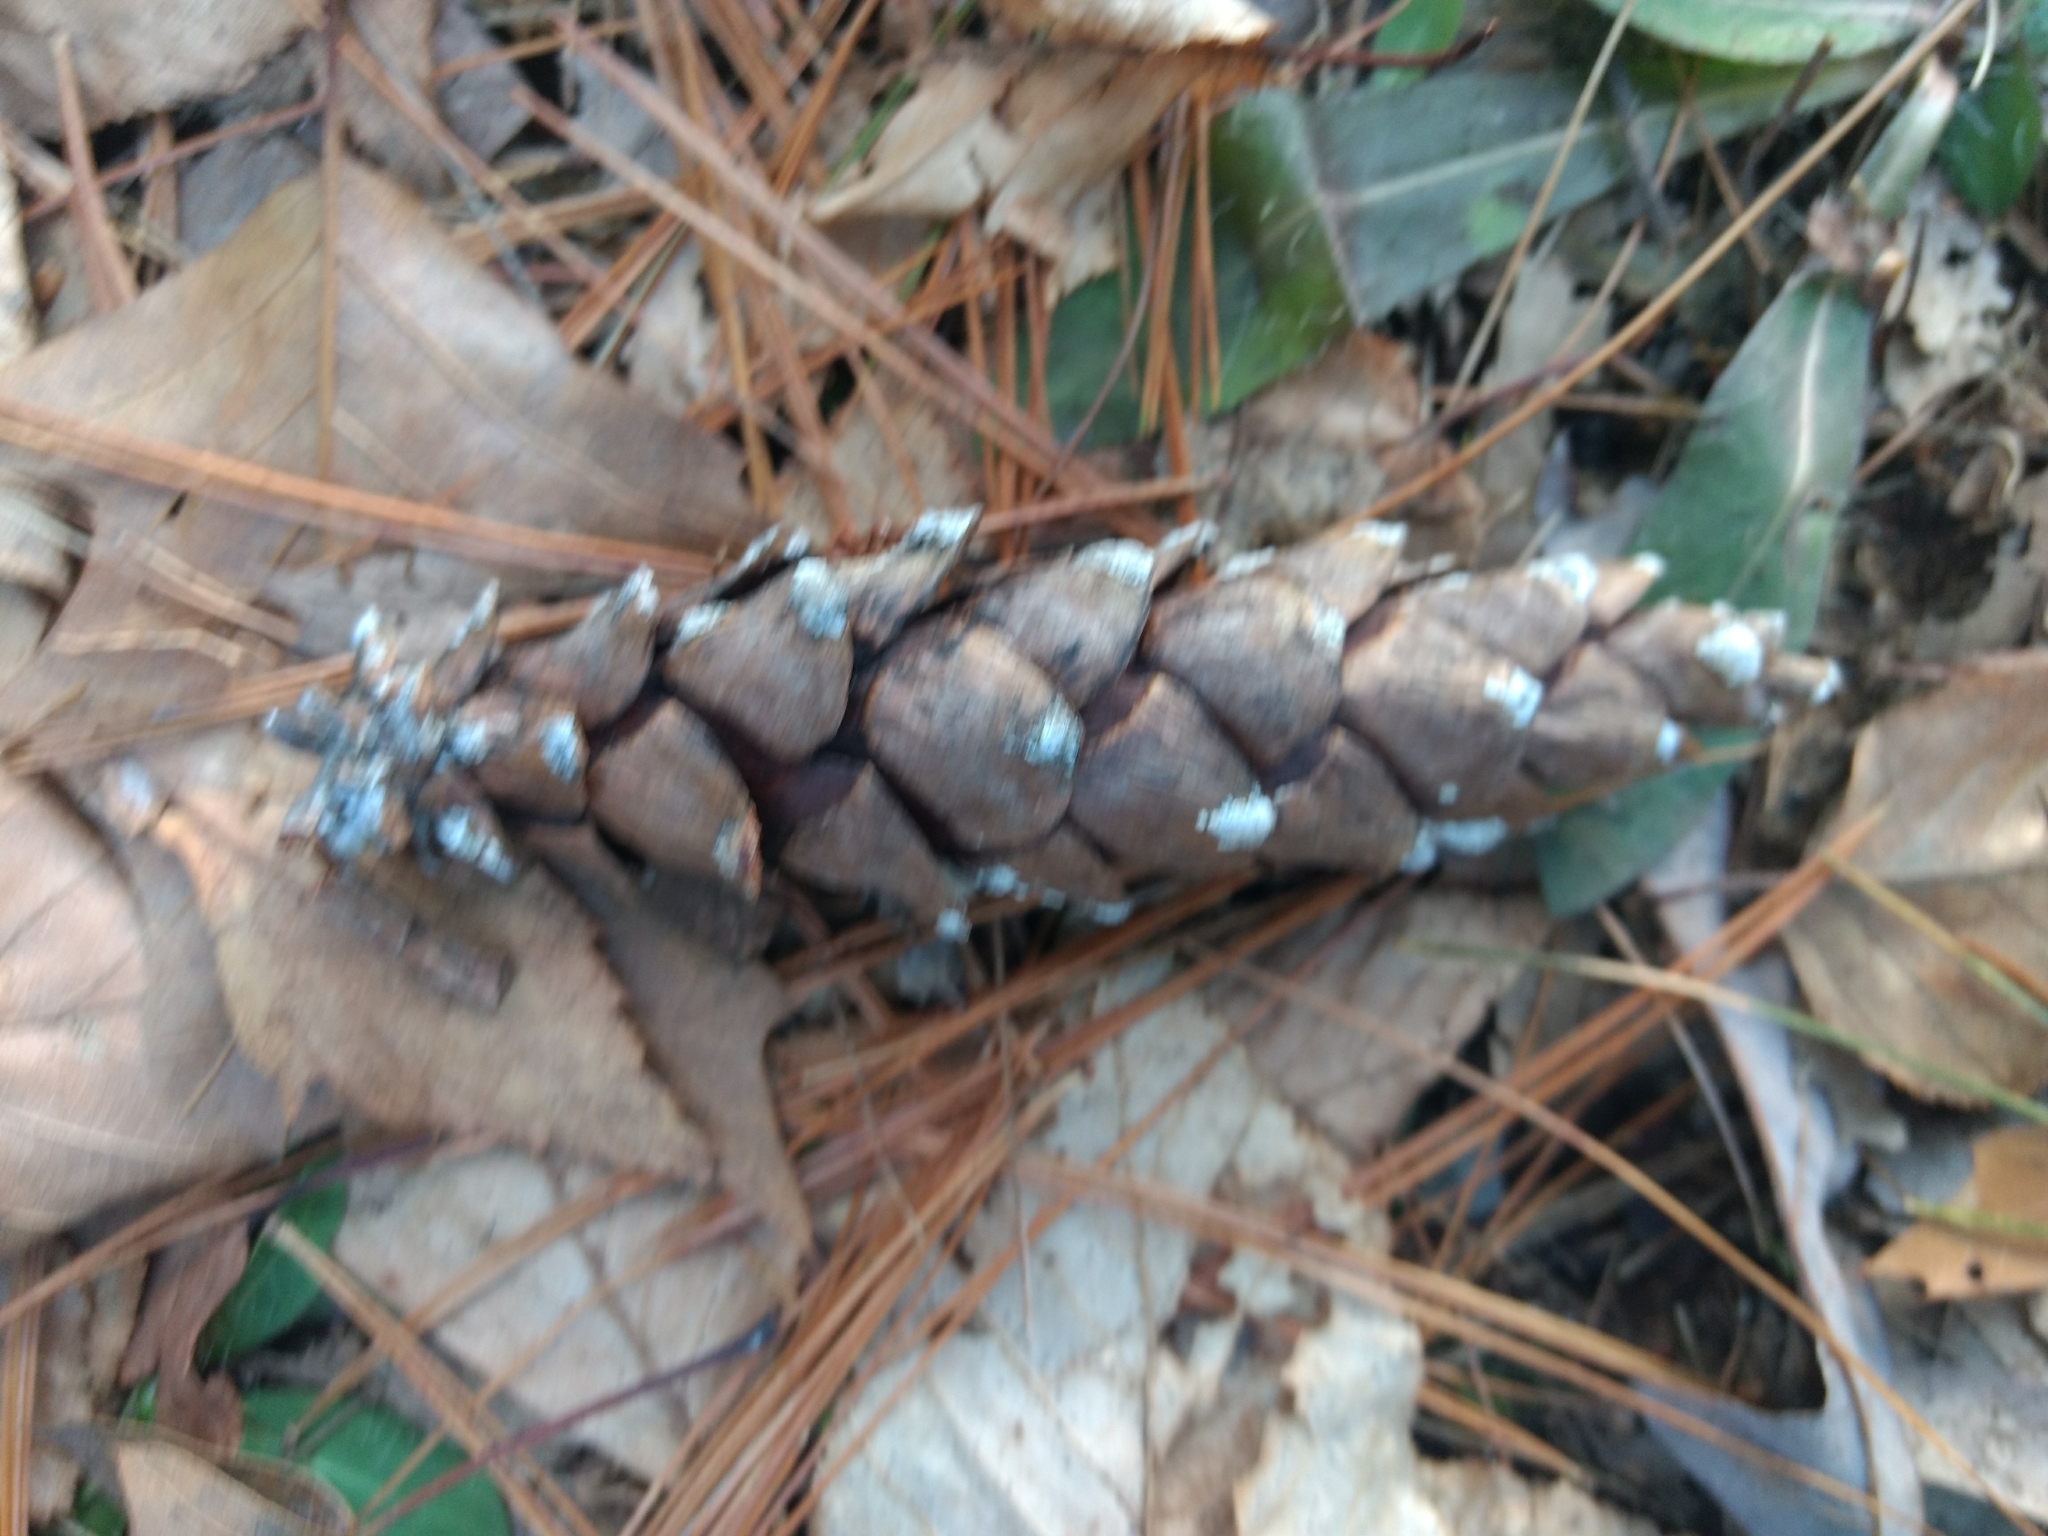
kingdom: Plantae
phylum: Tracheophyta
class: Pinopsida
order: Pinales
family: Pinaceae
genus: Pinus
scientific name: Pinus strobus
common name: Weymouth pine
